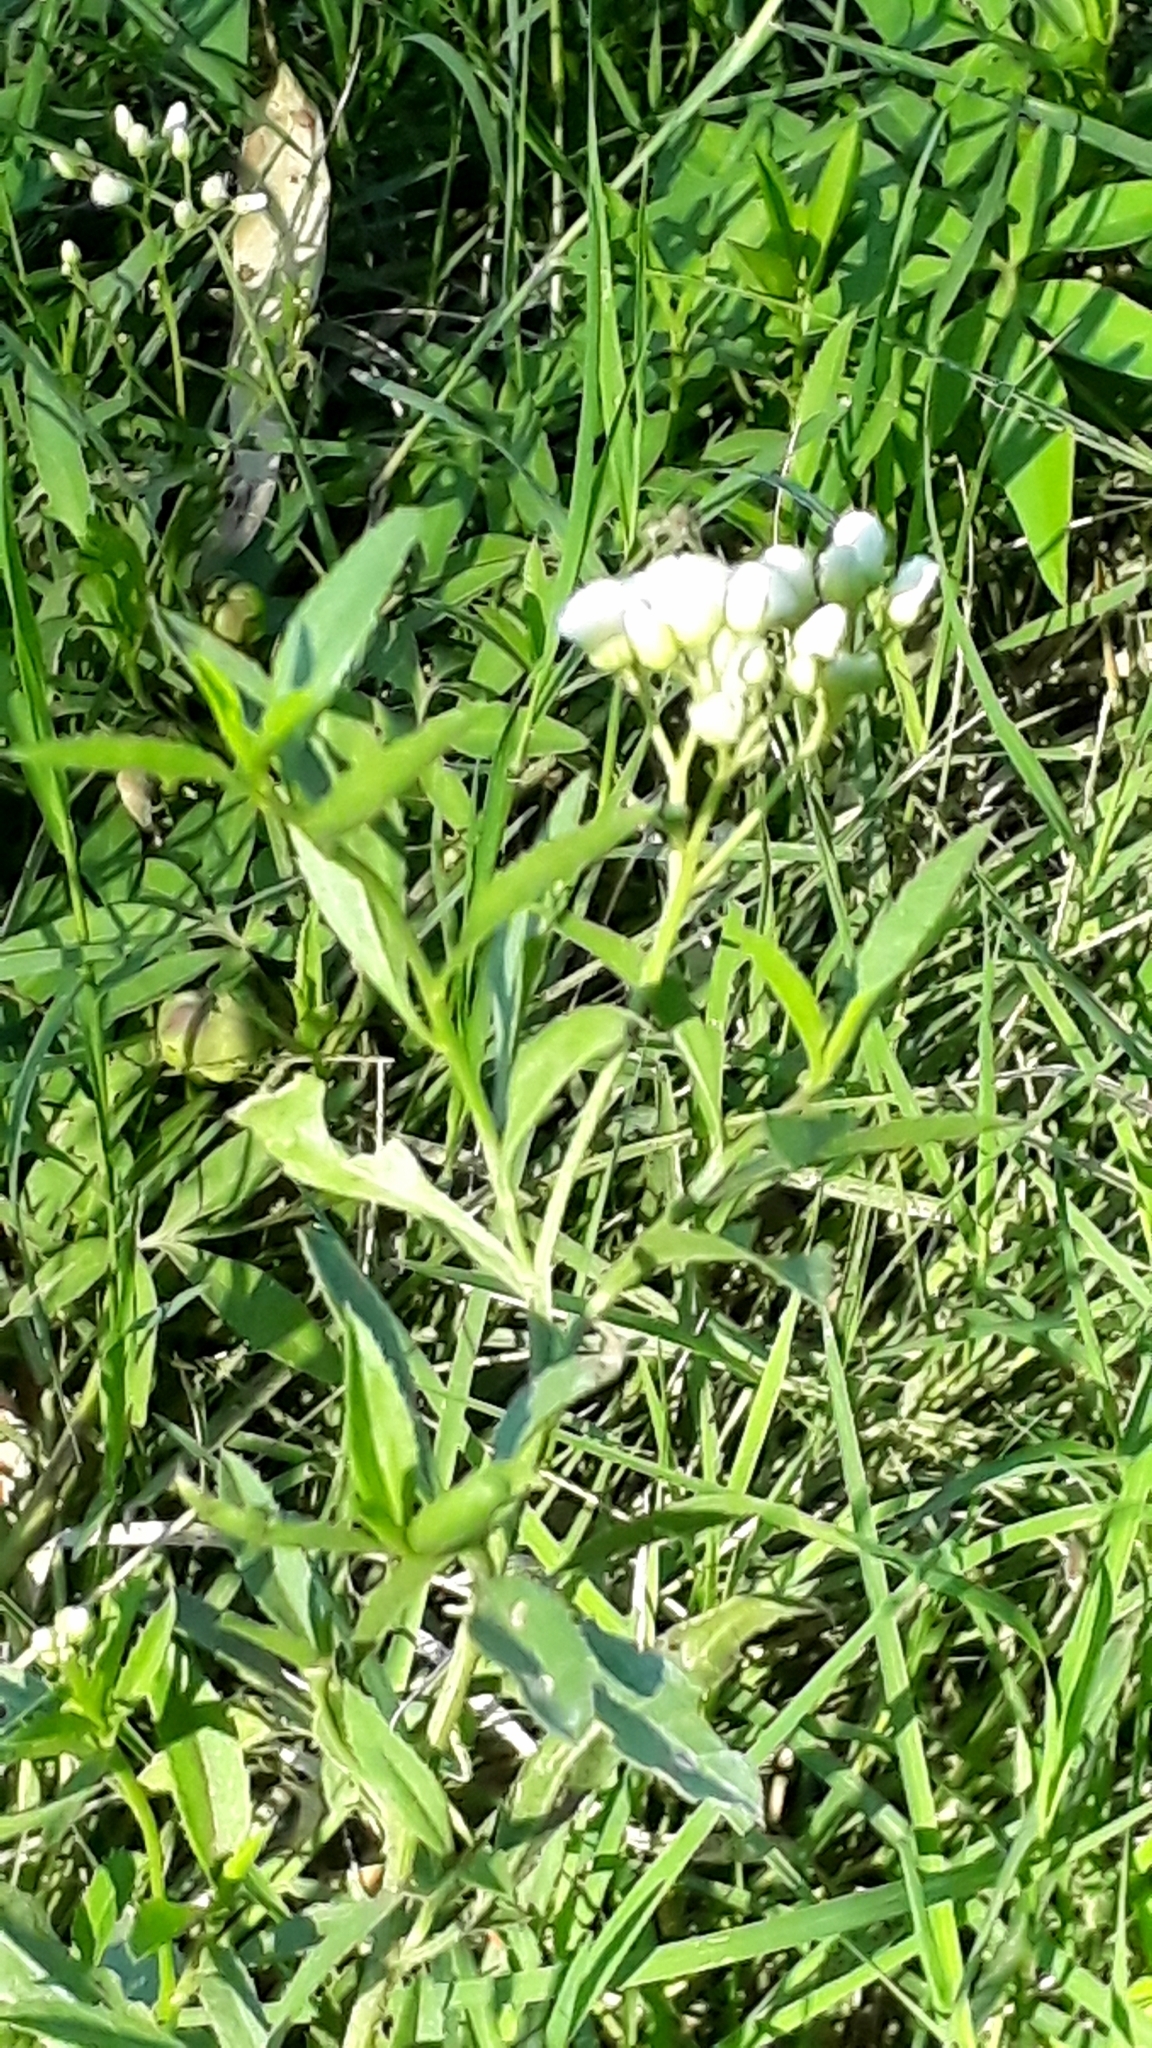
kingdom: Plantae
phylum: Tracheophyta
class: Magnoliopsida
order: Asterales
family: Asteraceae
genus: Baccharis
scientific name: Baccharis glutinosa
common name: Saltmarsh baccharis
